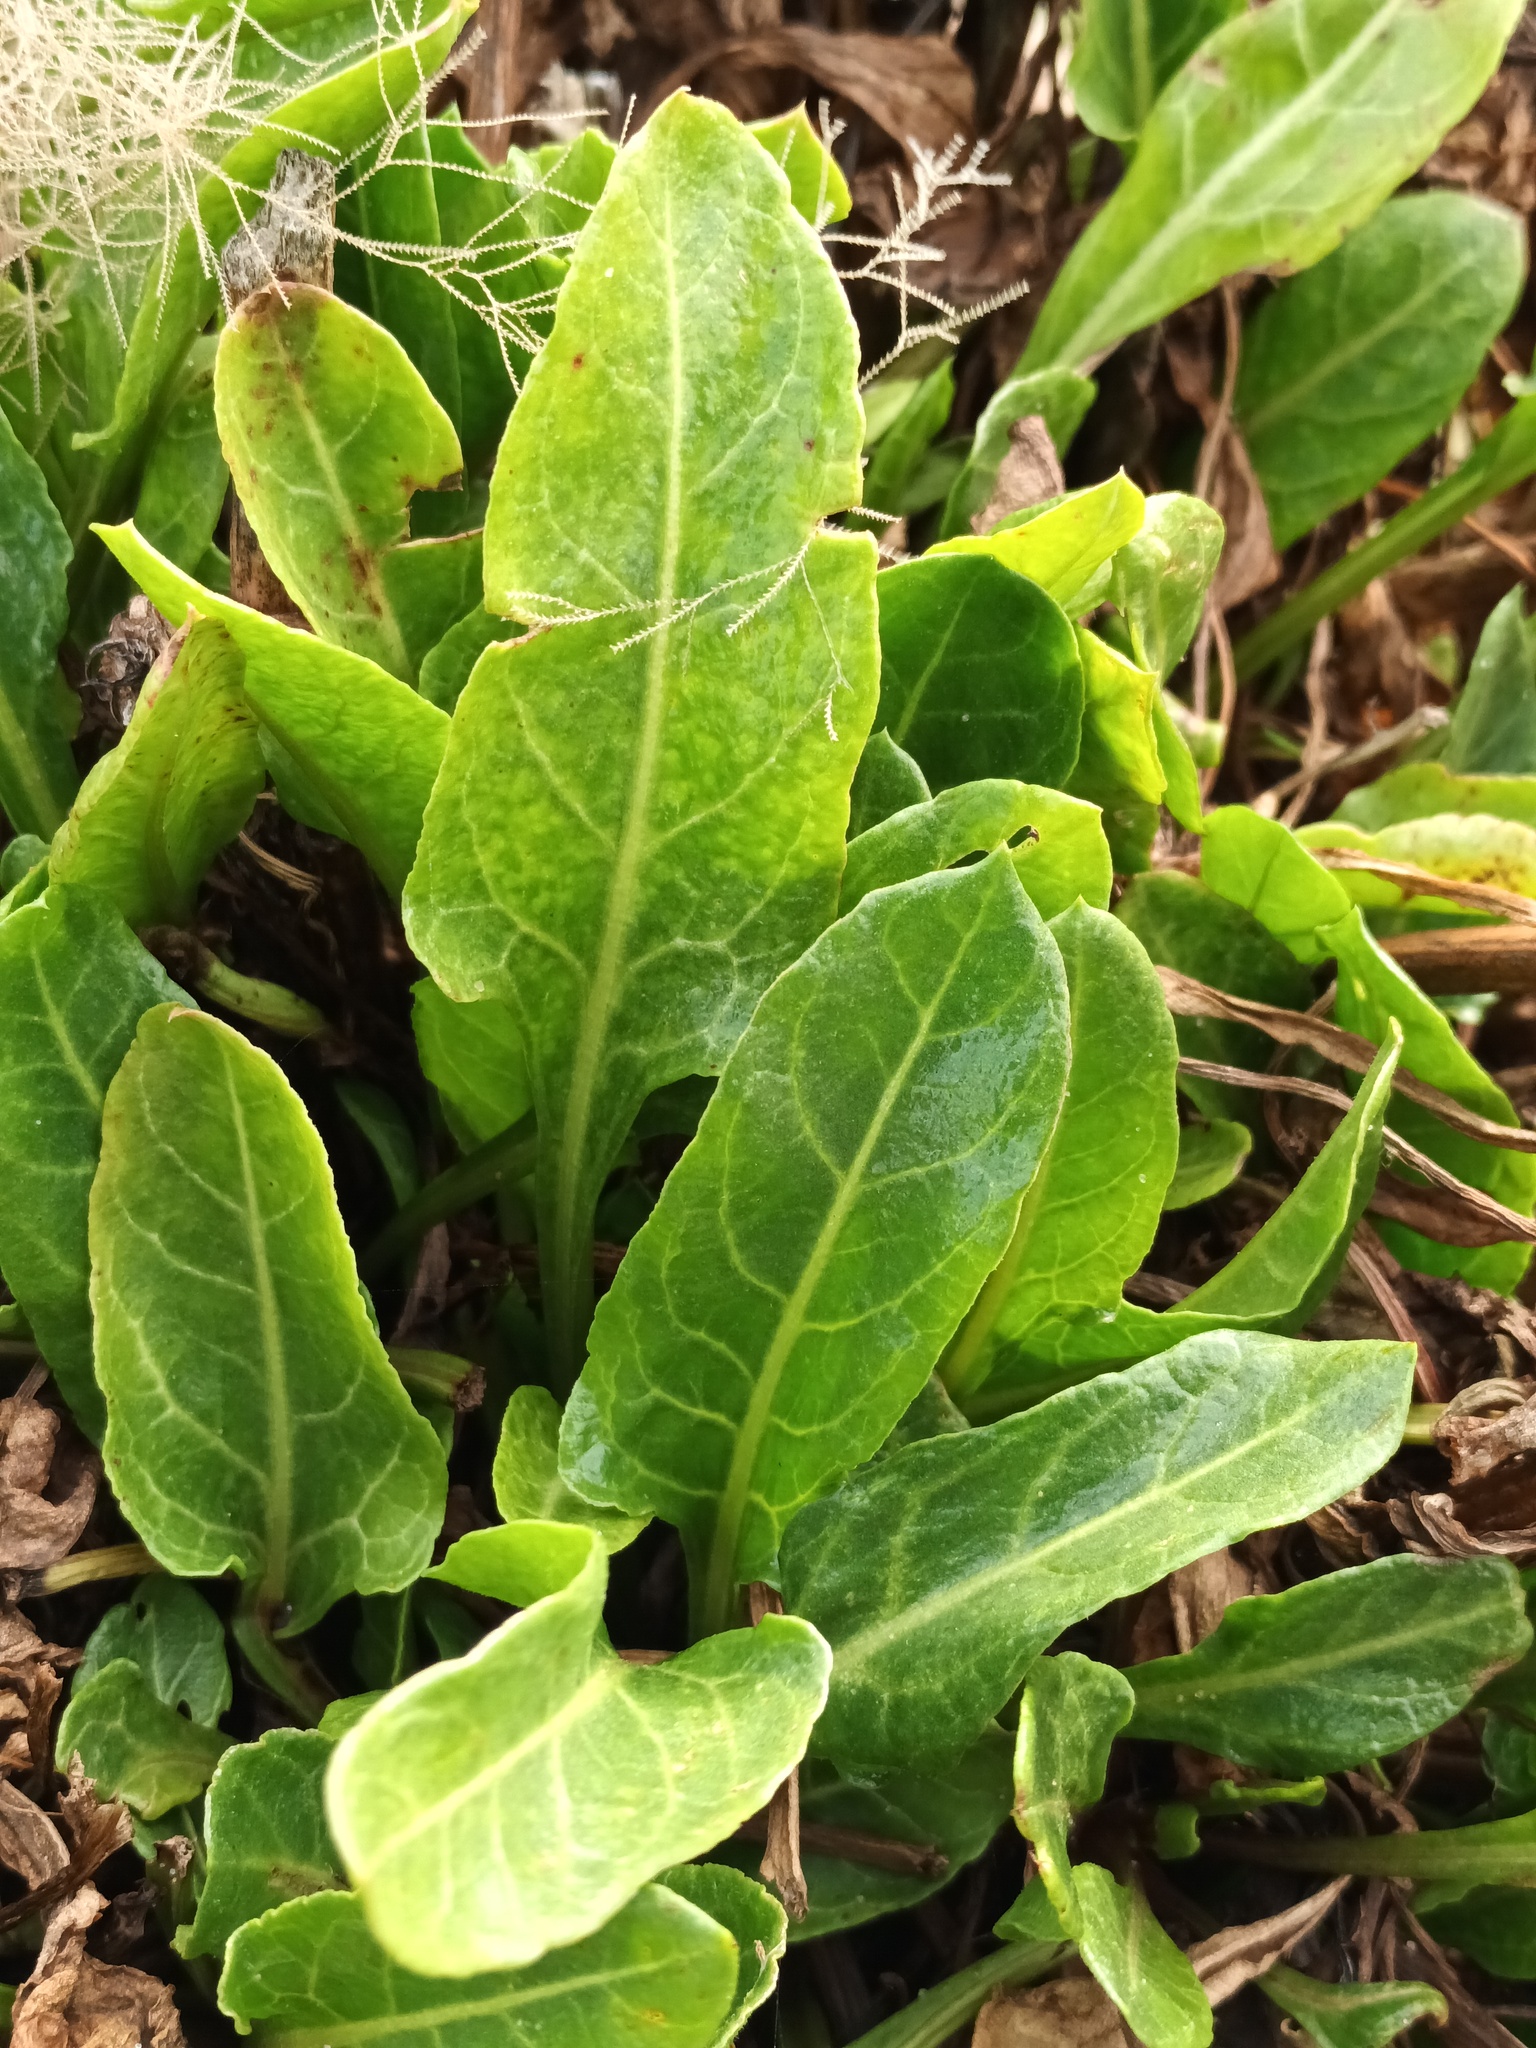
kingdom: Plantae
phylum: Tracheophyta
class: Magnoliopsida
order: Caryophyllales
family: Amaranthaceae
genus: Beta
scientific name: Beta vulgaris
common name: Beet
